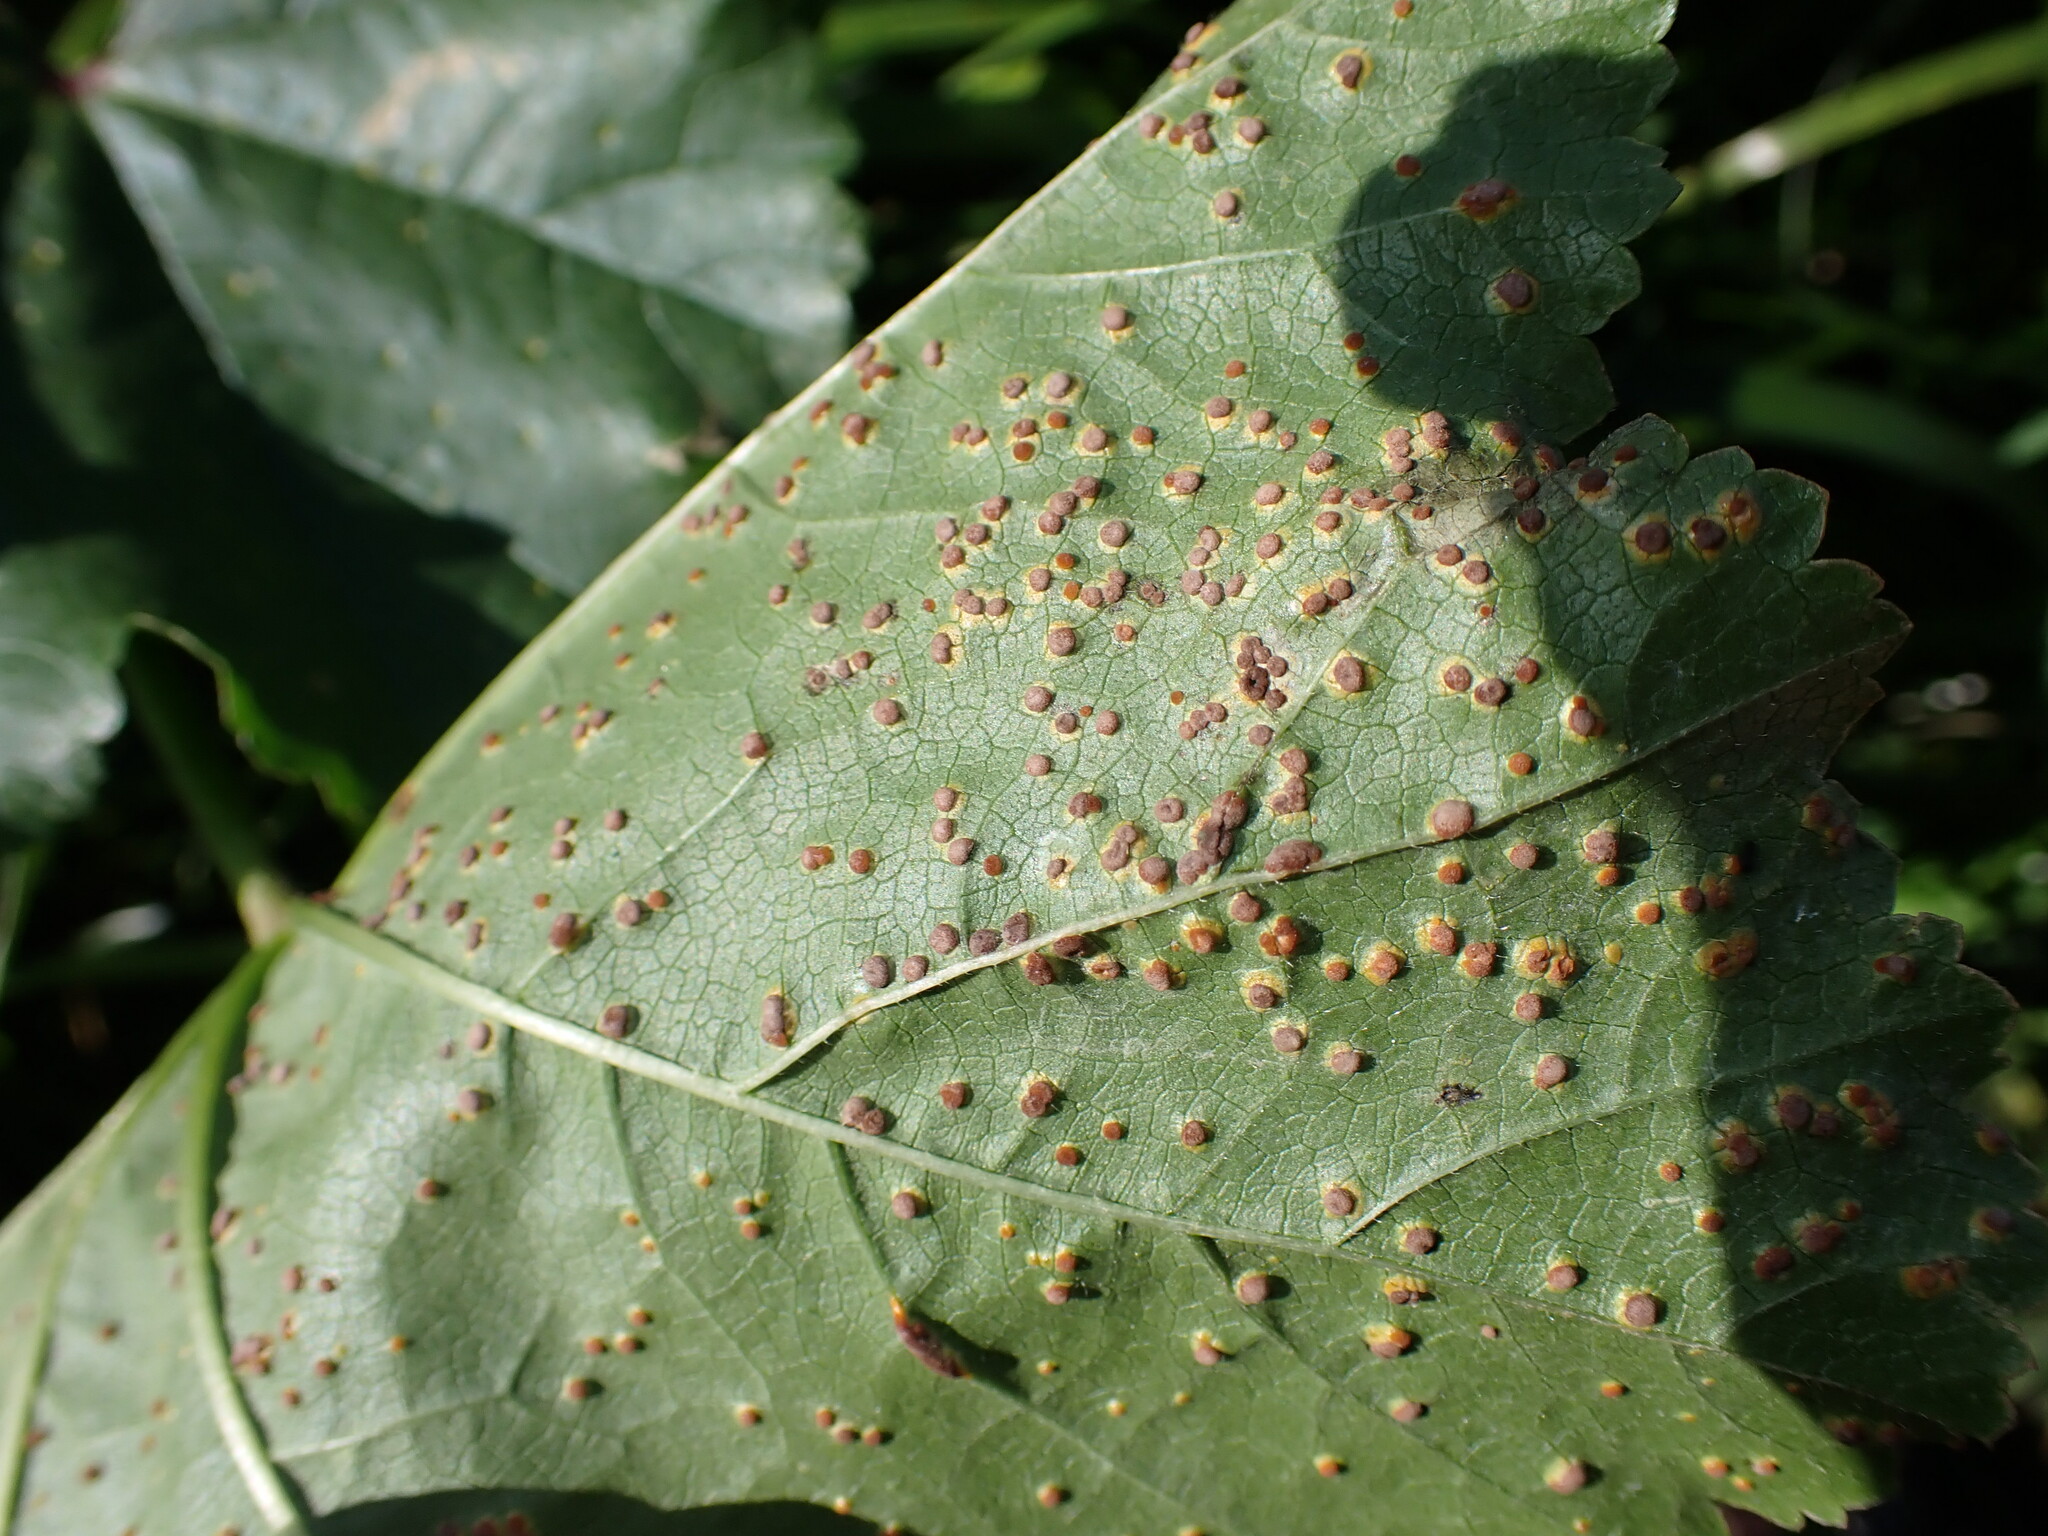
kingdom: Fungi
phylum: Basidiomycota
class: Pucciniomycetes
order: Pucciniales
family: Pucciniaceae
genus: Puccinia
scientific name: Puccinia malvacearum
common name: Hollyhock rust
